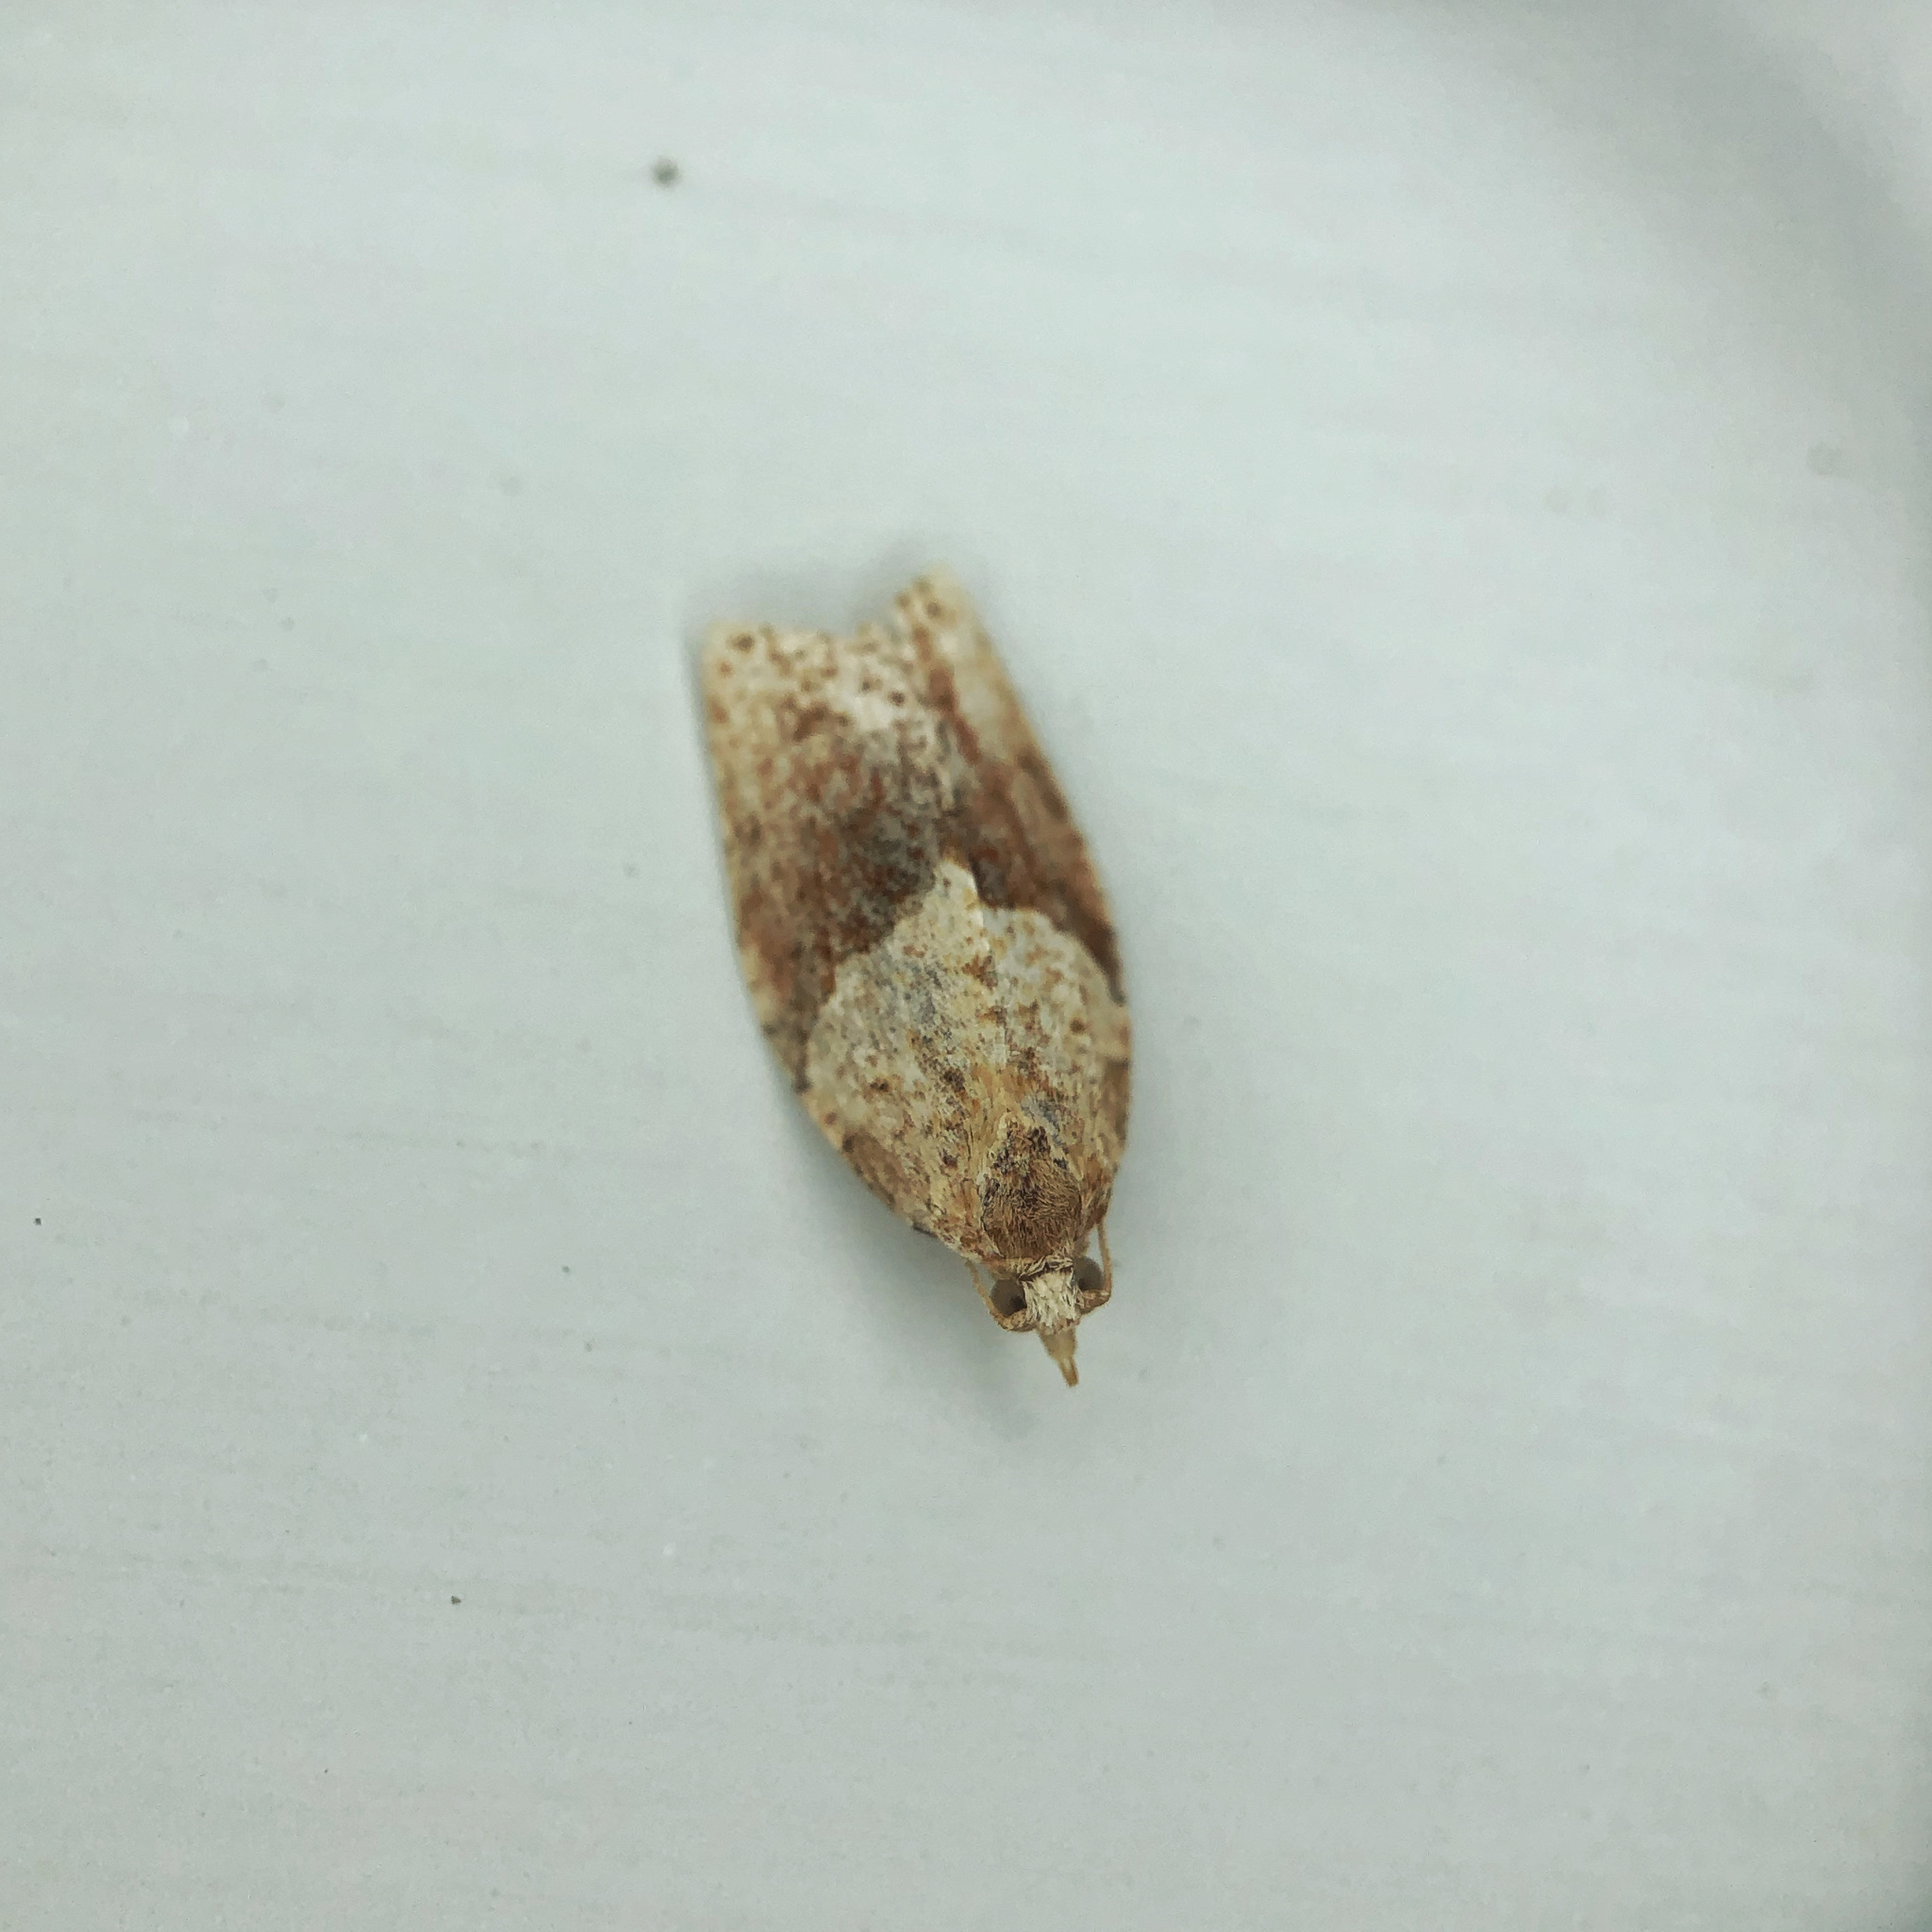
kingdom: Animalia
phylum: Arthropoda
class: Insecta
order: Lepidoptera
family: Tortricidae
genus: Epiphyas
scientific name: Epiphyas postvittana
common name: Light brown apple moth
